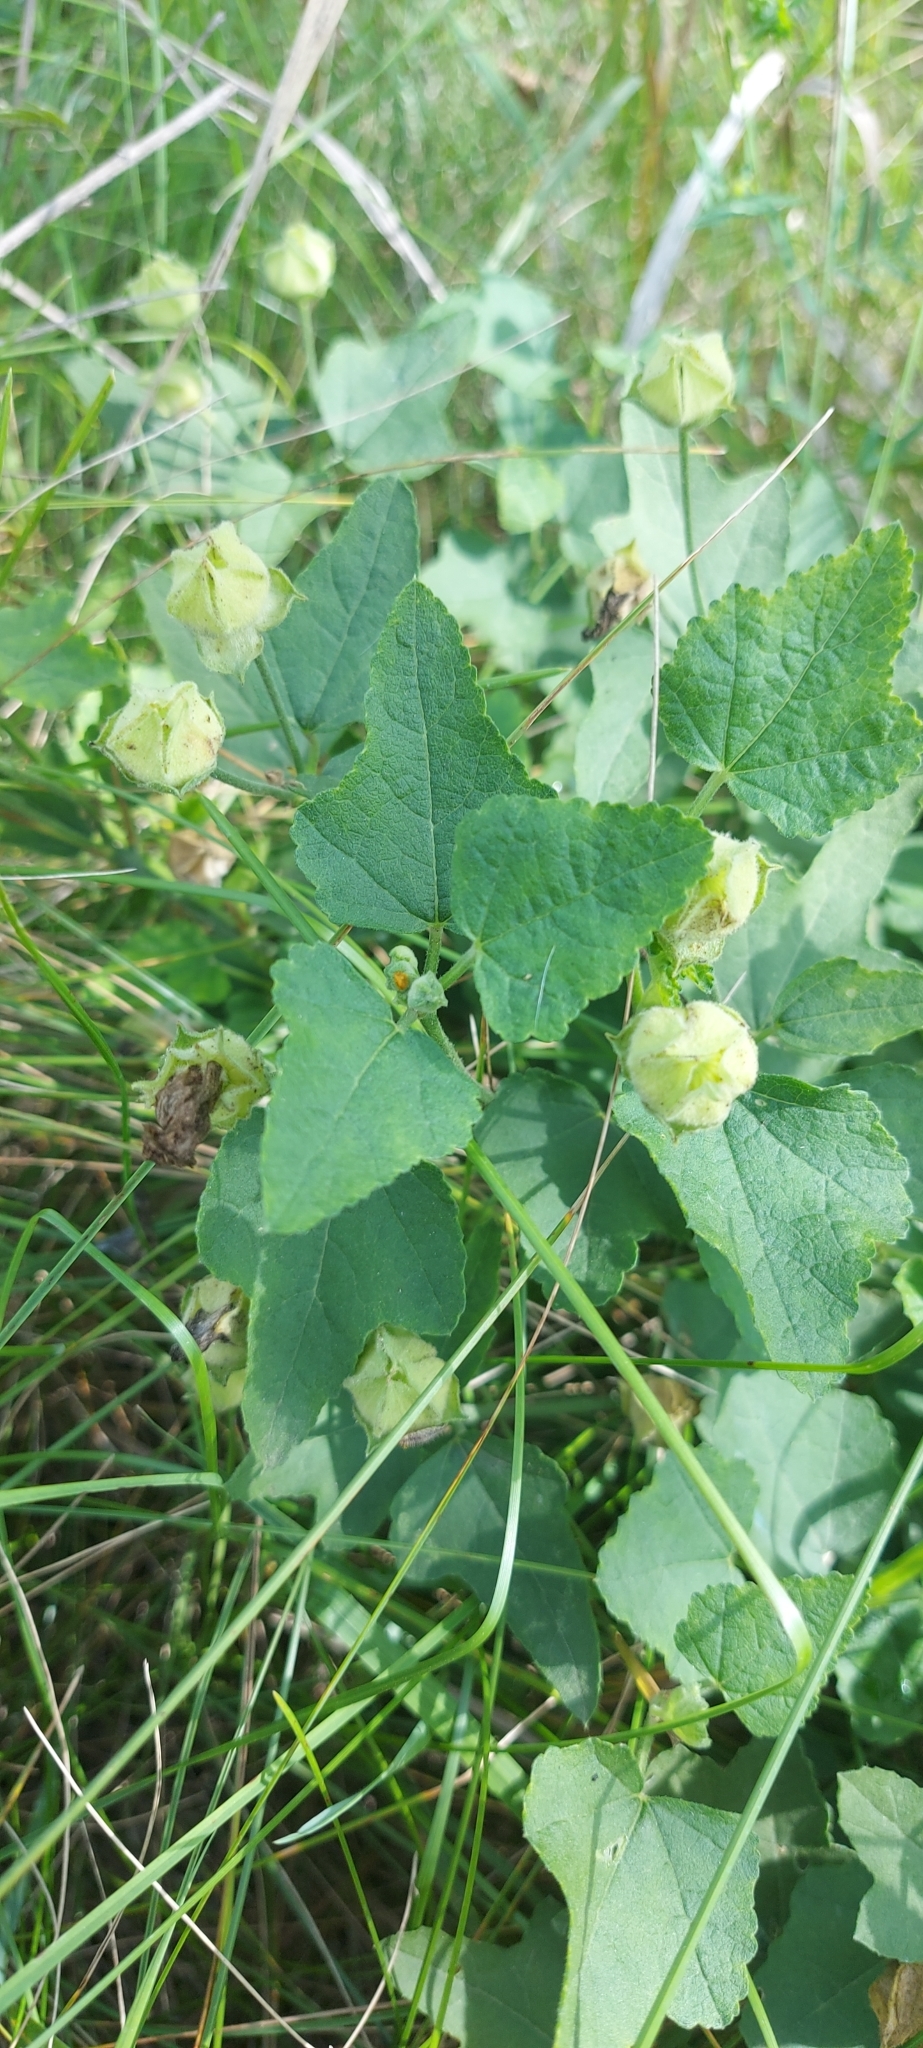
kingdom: Plantae
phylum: Tracheophyta
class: Magnoliopsida
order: Malvales
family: Malvaceae
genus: Malva
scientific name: Malva thuringiaca
